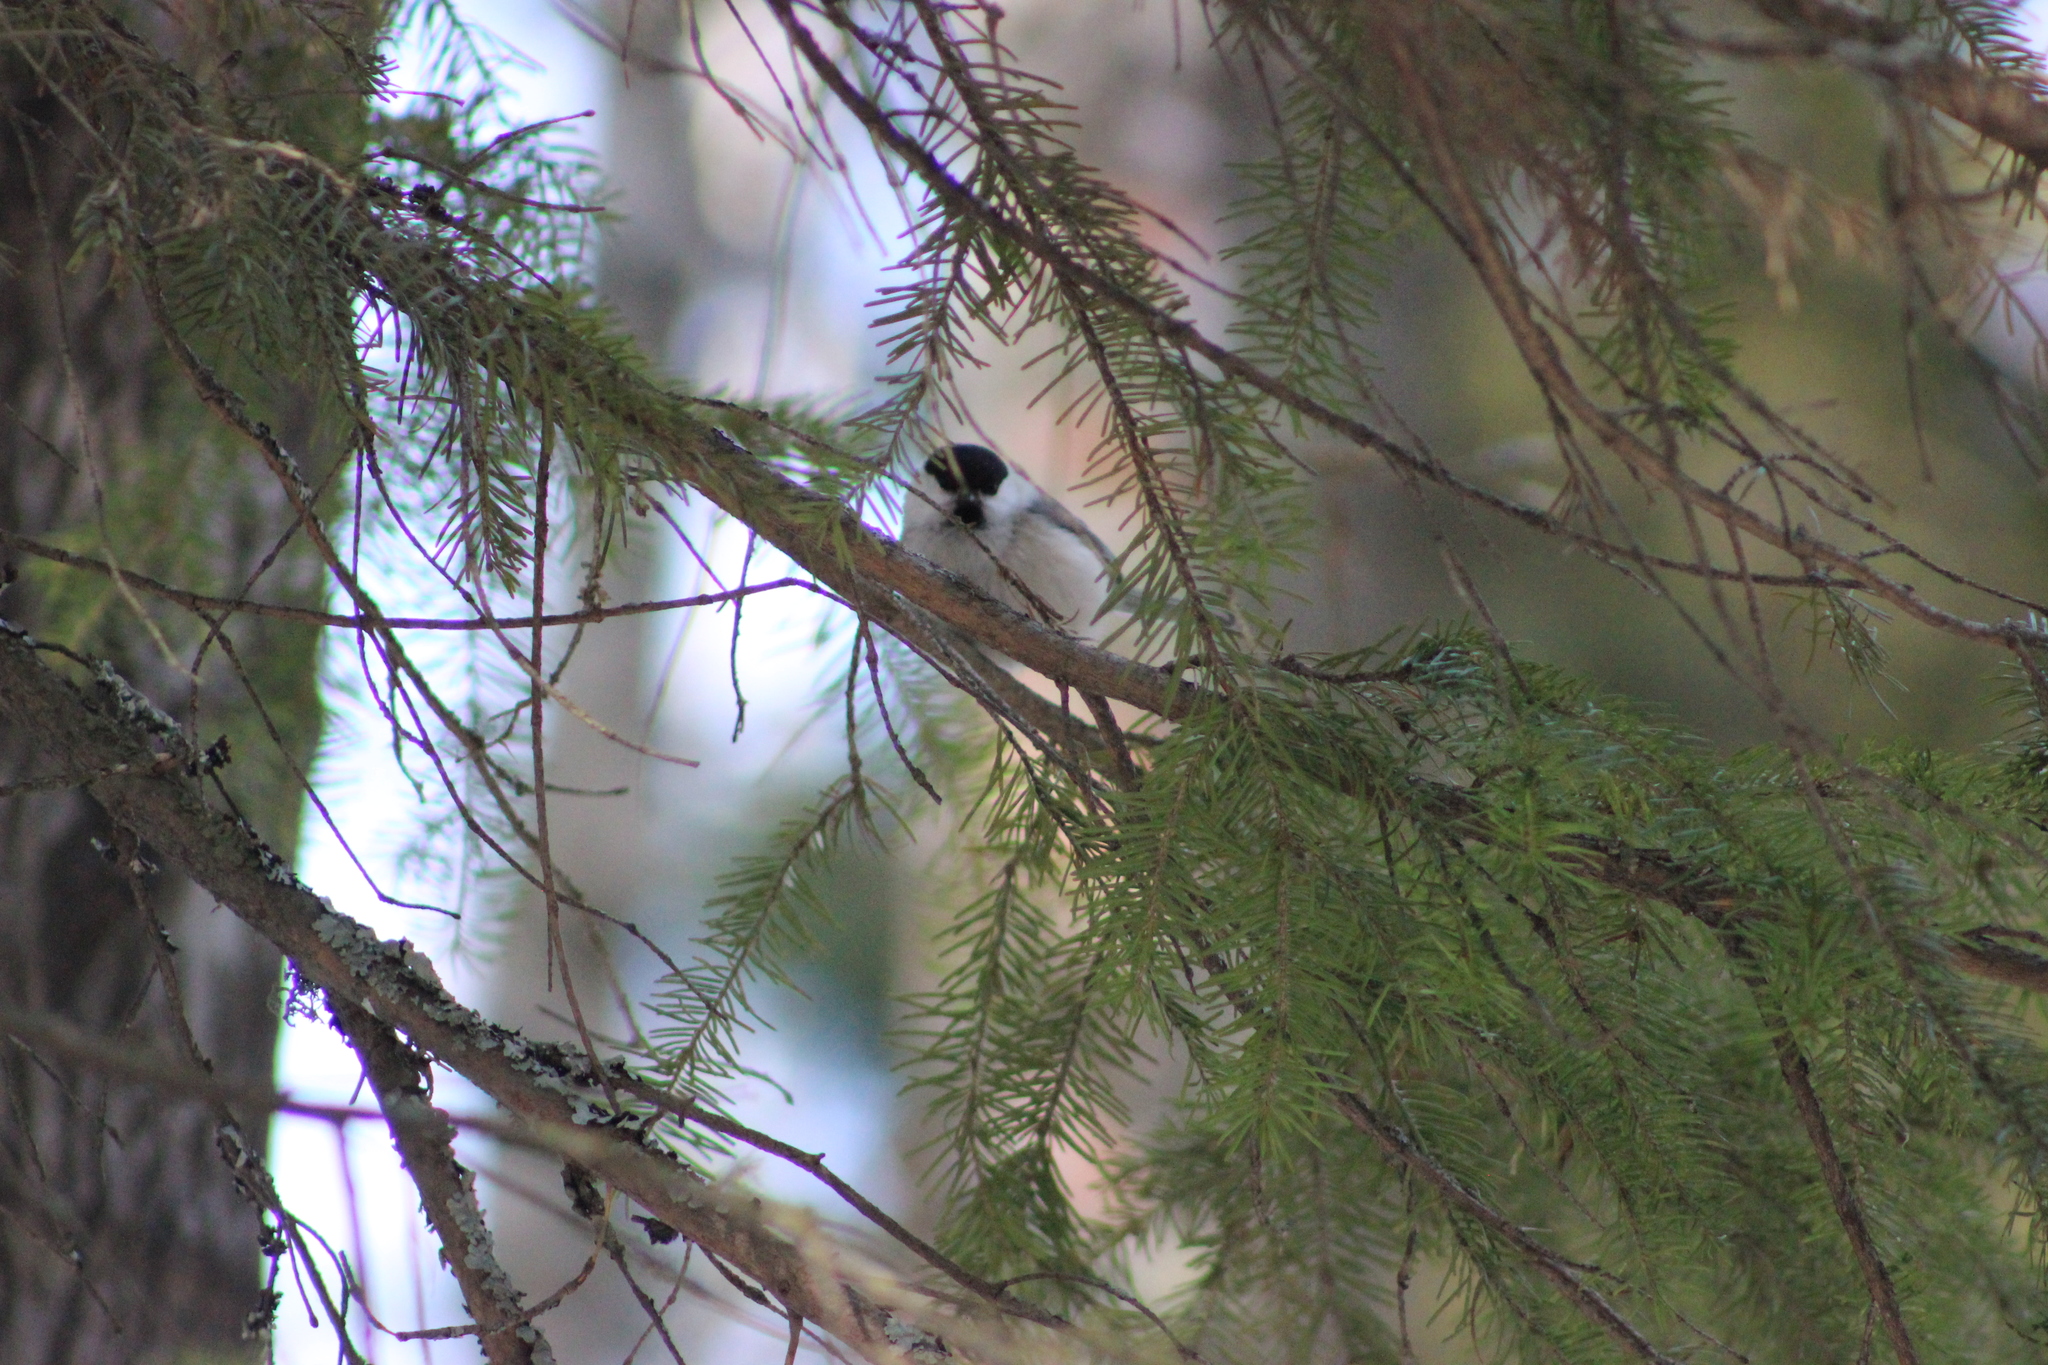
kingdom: Animalia
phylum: Chordata
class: Aves
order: Passeriformes
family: Paridae
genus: Poecile
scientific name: Poecile montanus
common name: Willow tit
